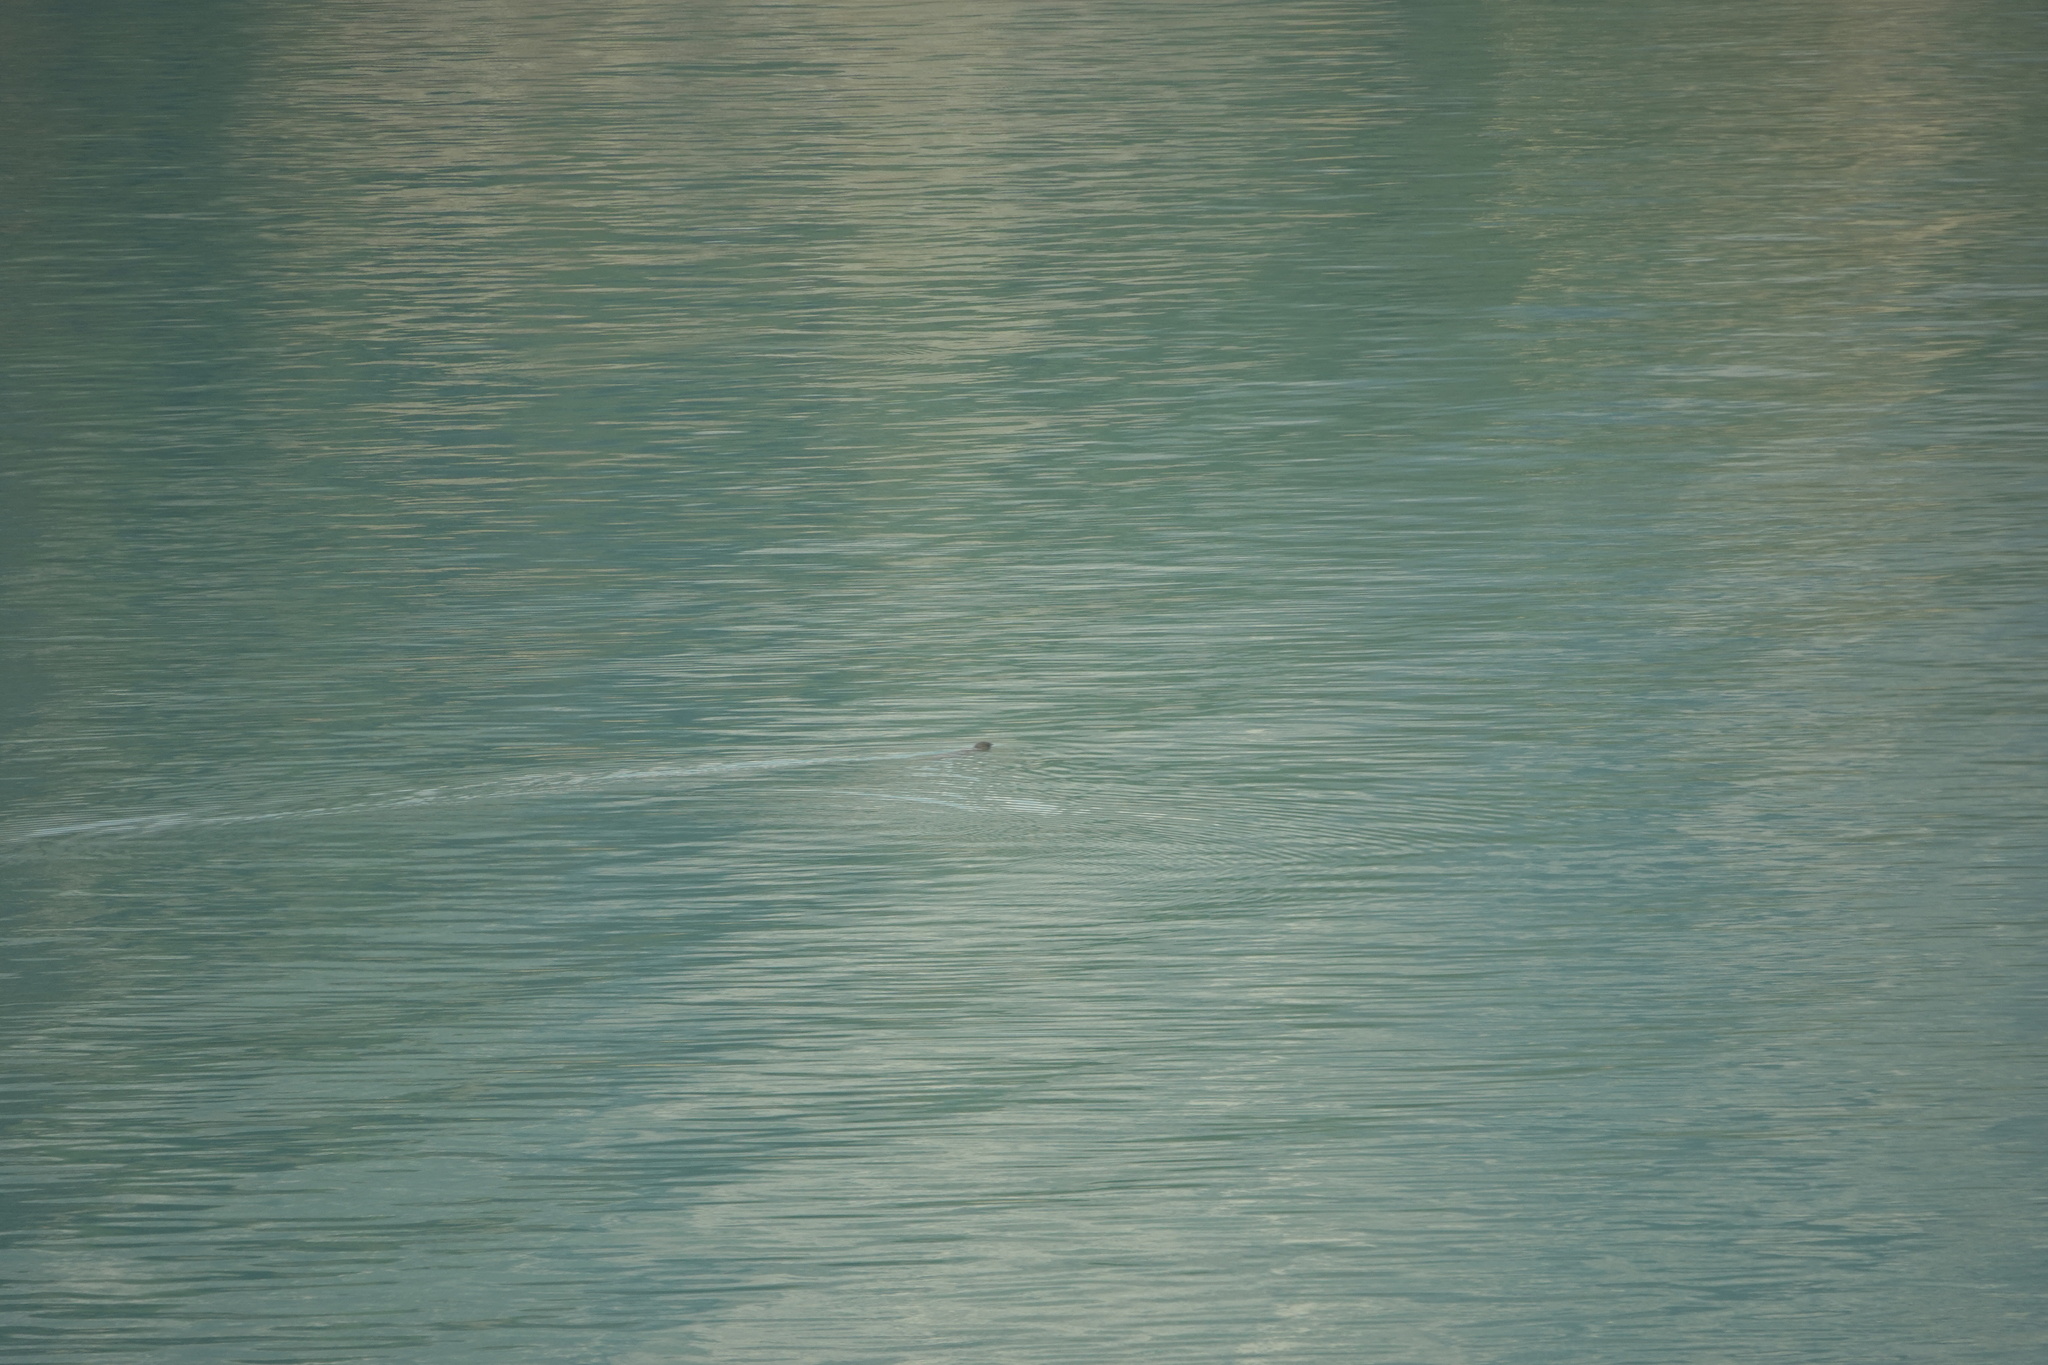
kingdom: Animalia
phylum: Chordata
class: Mammalia
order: Carnivora
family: Mustelidae
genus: Enhydra
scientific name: Enhydra lutris
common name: Sea otter
